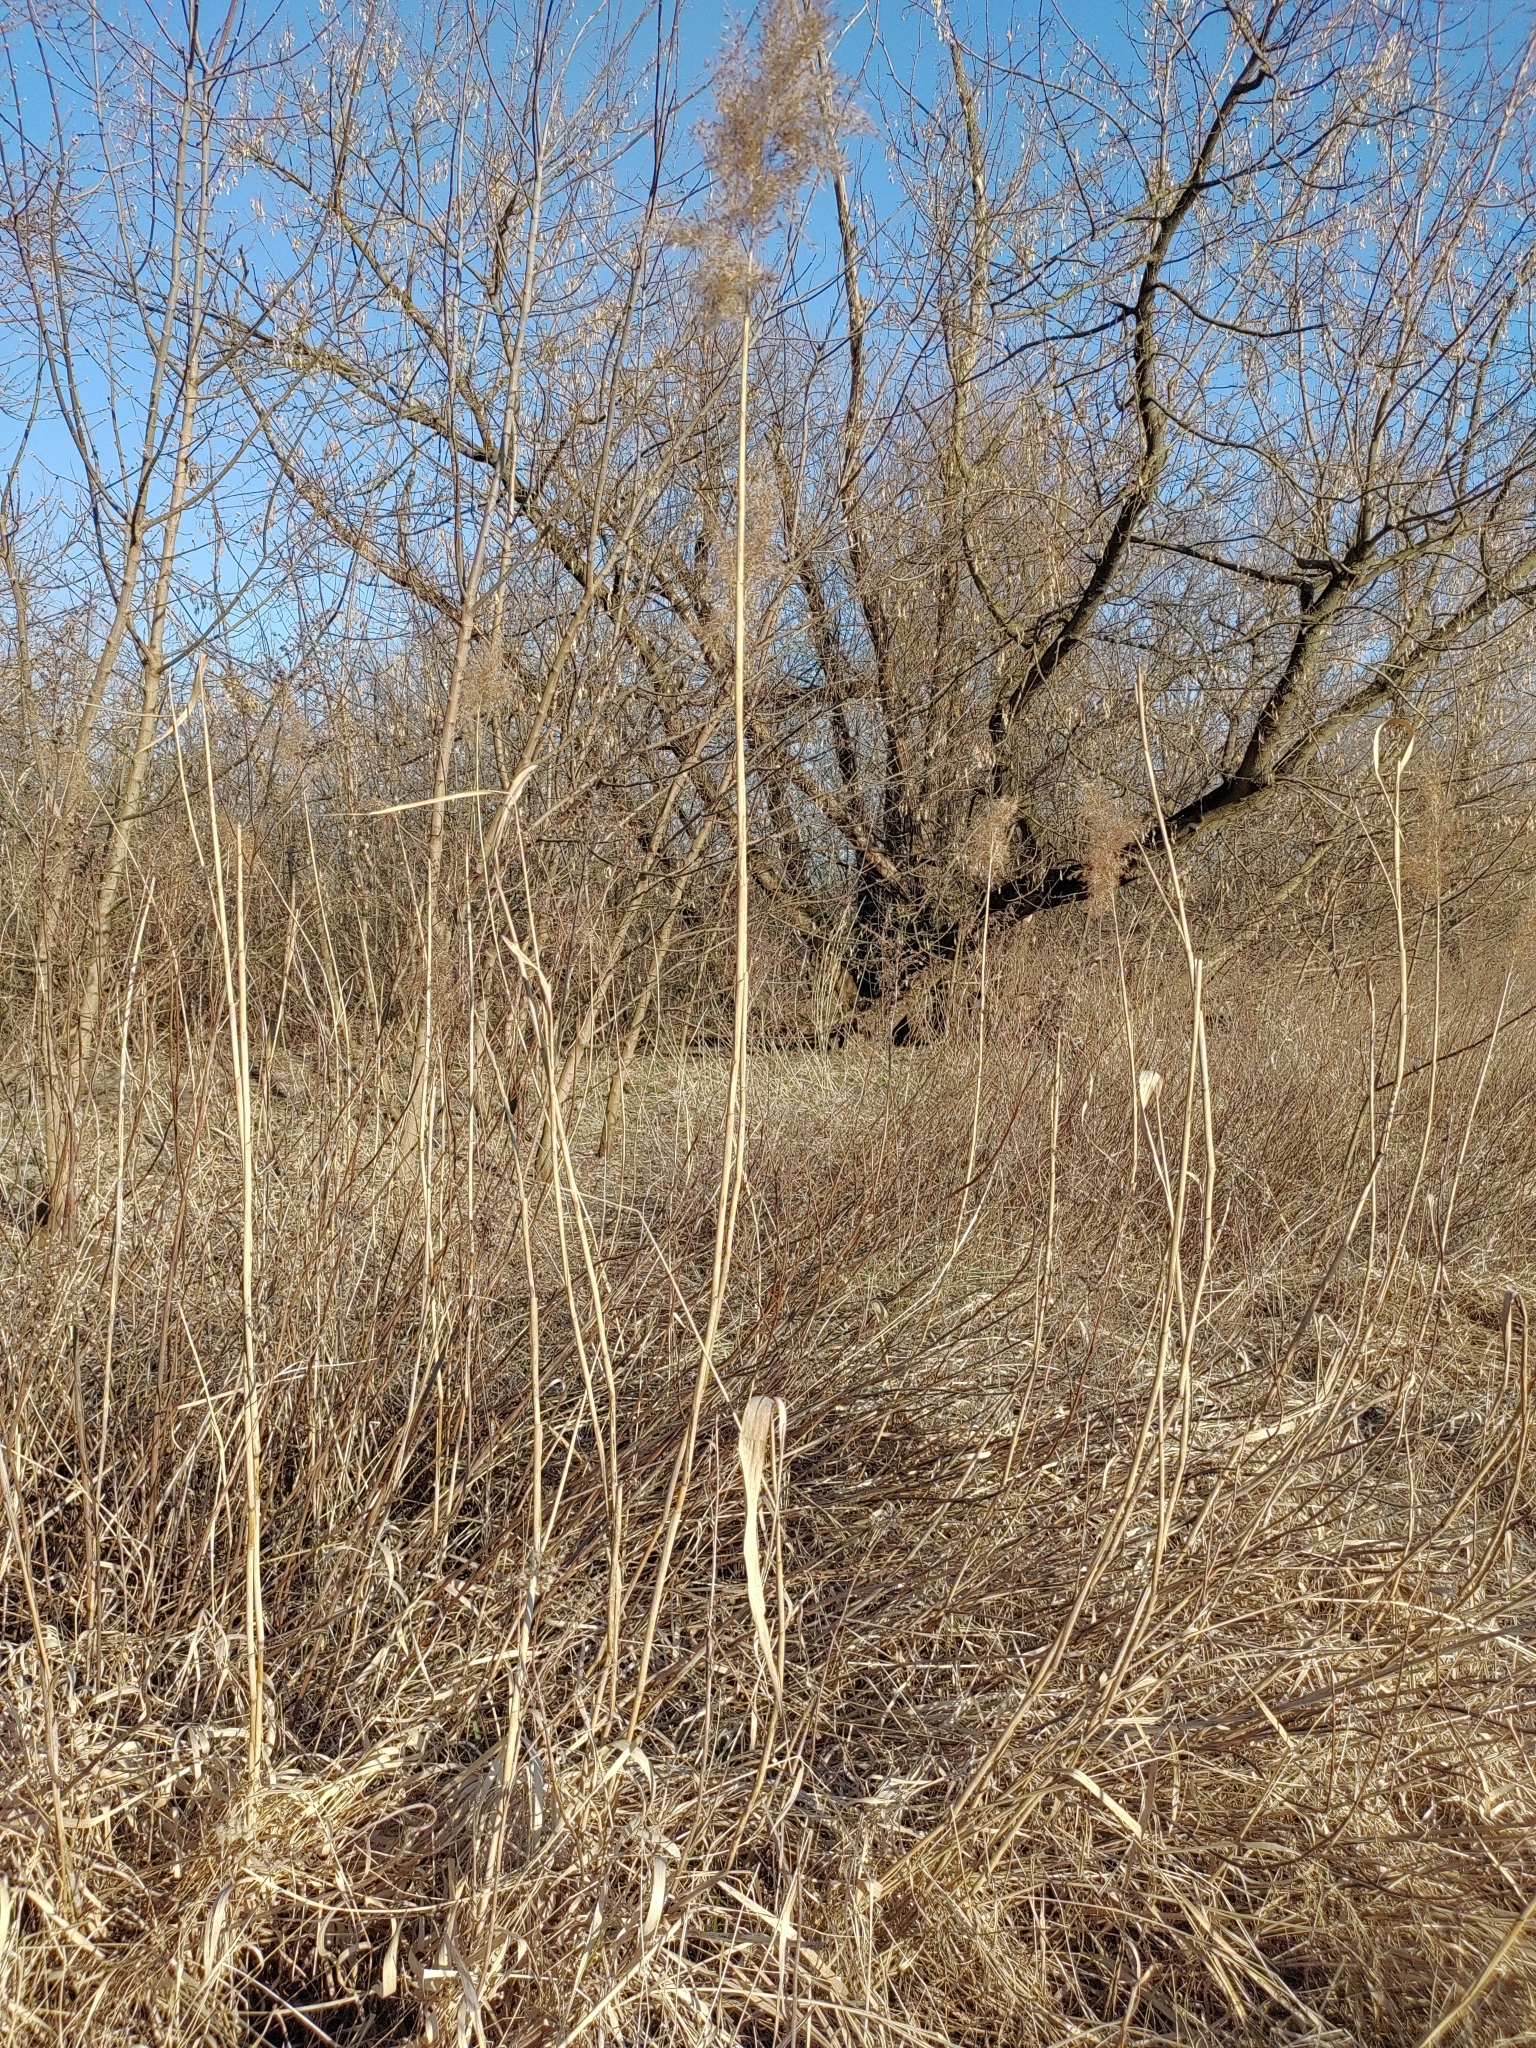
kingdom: Plantae
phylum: Tracheophyta
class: Liliopsida
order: Poales
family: Poaceae
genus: Phragmites
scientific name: Phragmites australis
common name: Common reed
